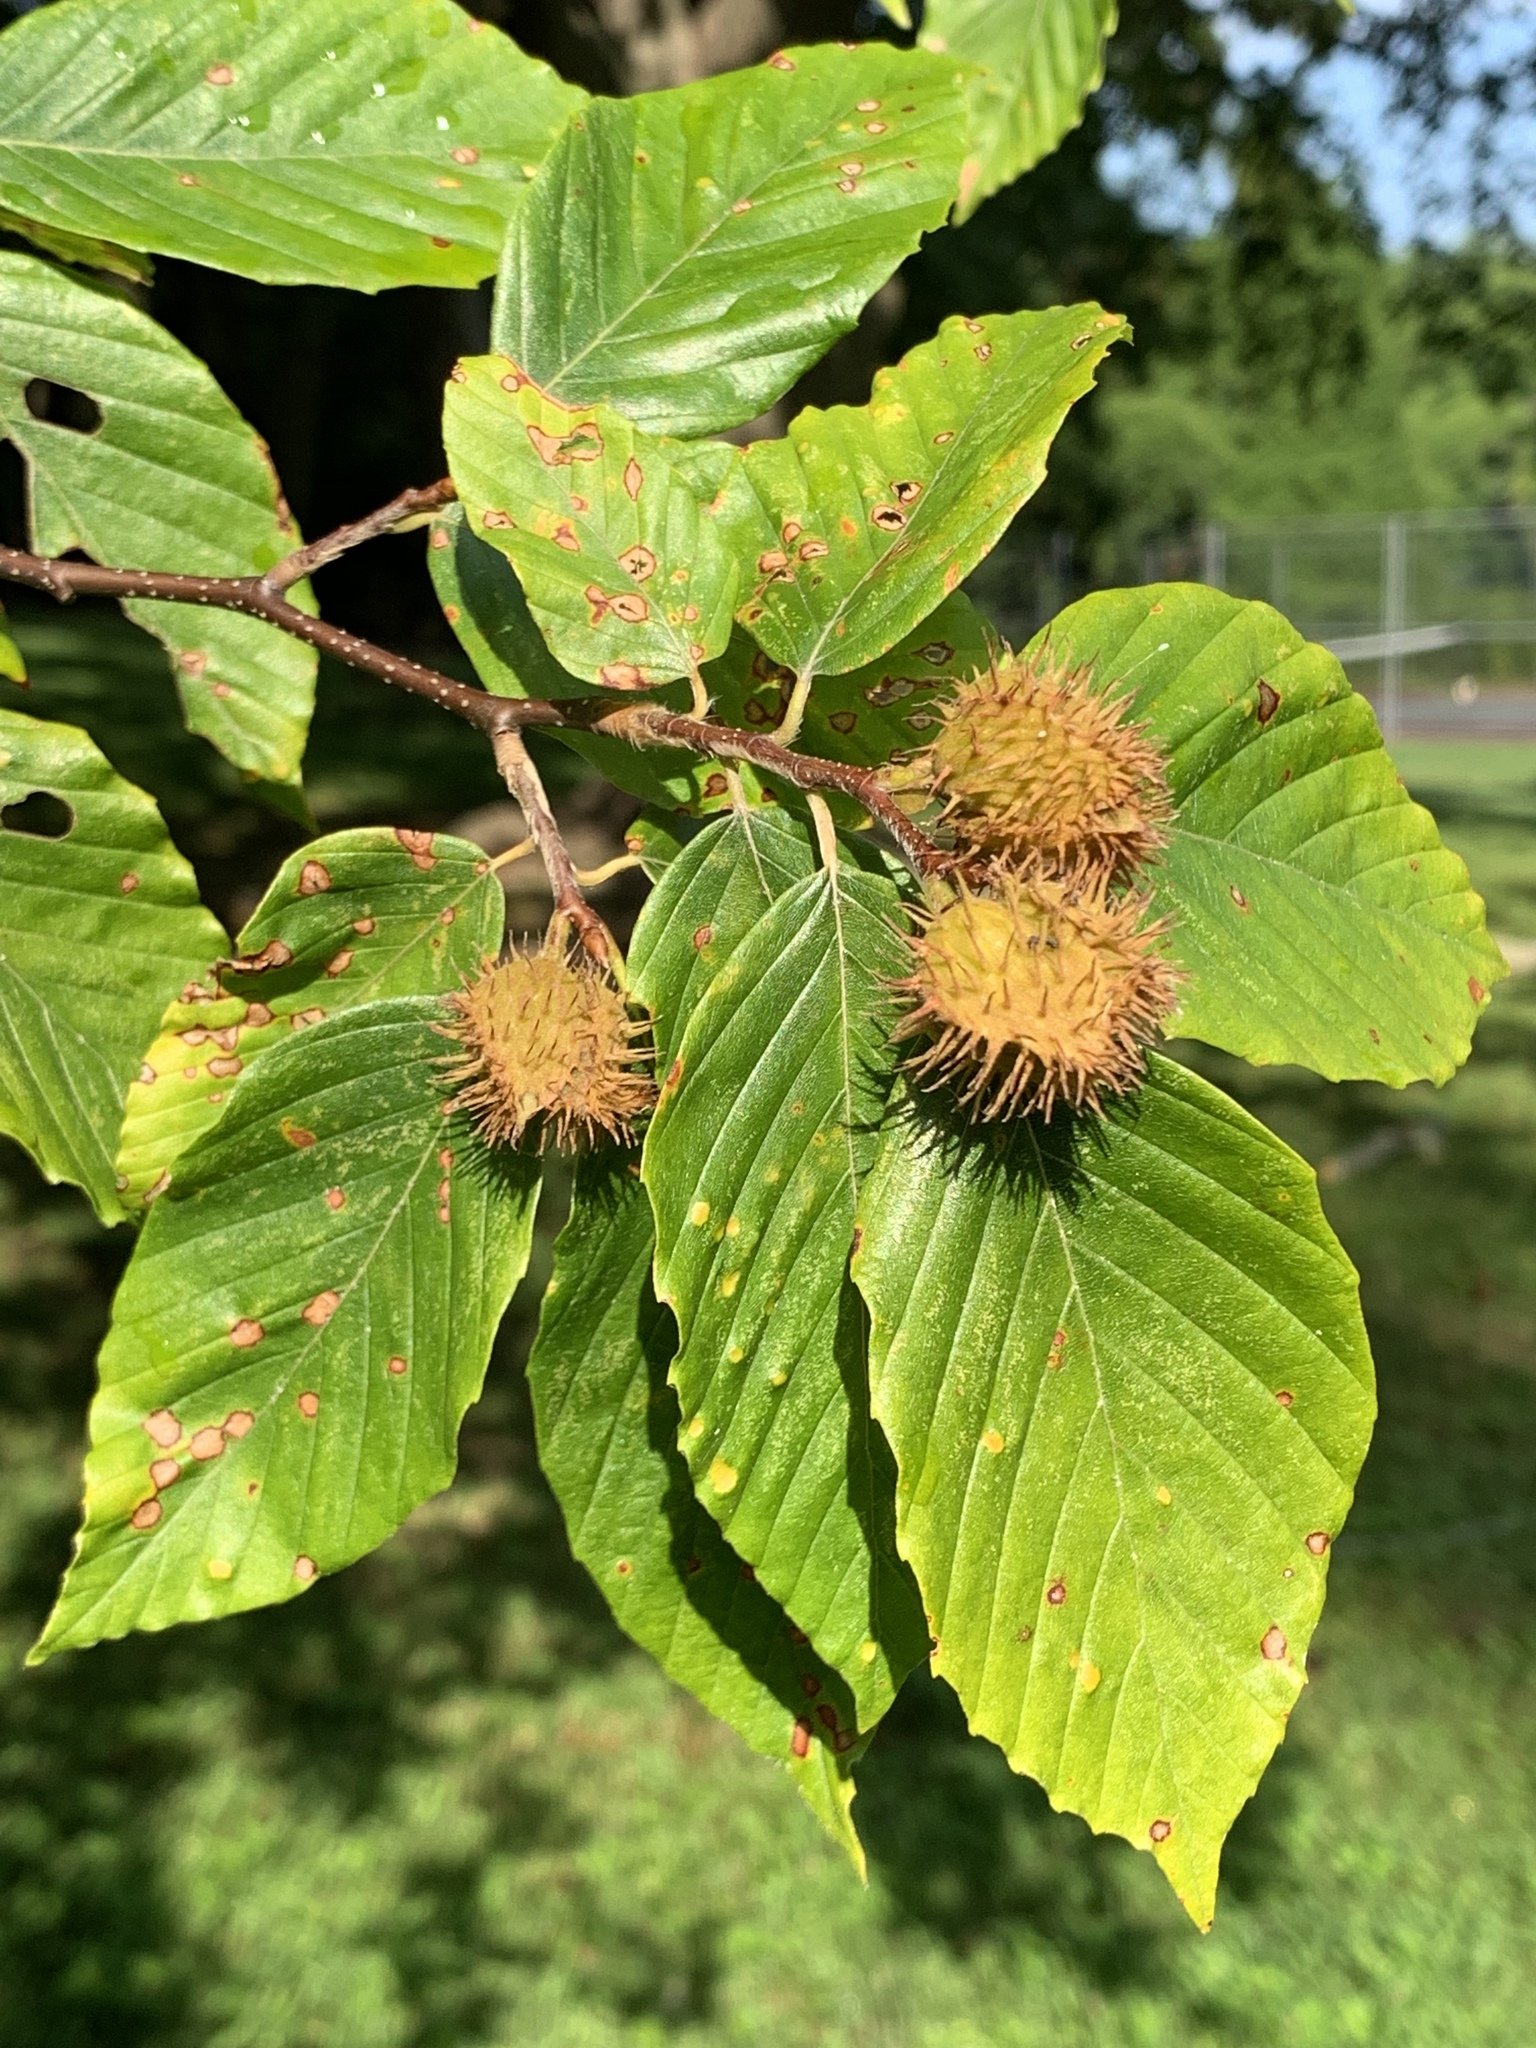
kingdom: Plantae
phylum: Tracheophyta
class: Magnoliopsida
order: Fagales
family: Fagaceae
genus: Fagus
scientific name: Fagus grandifolia
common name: American beech
